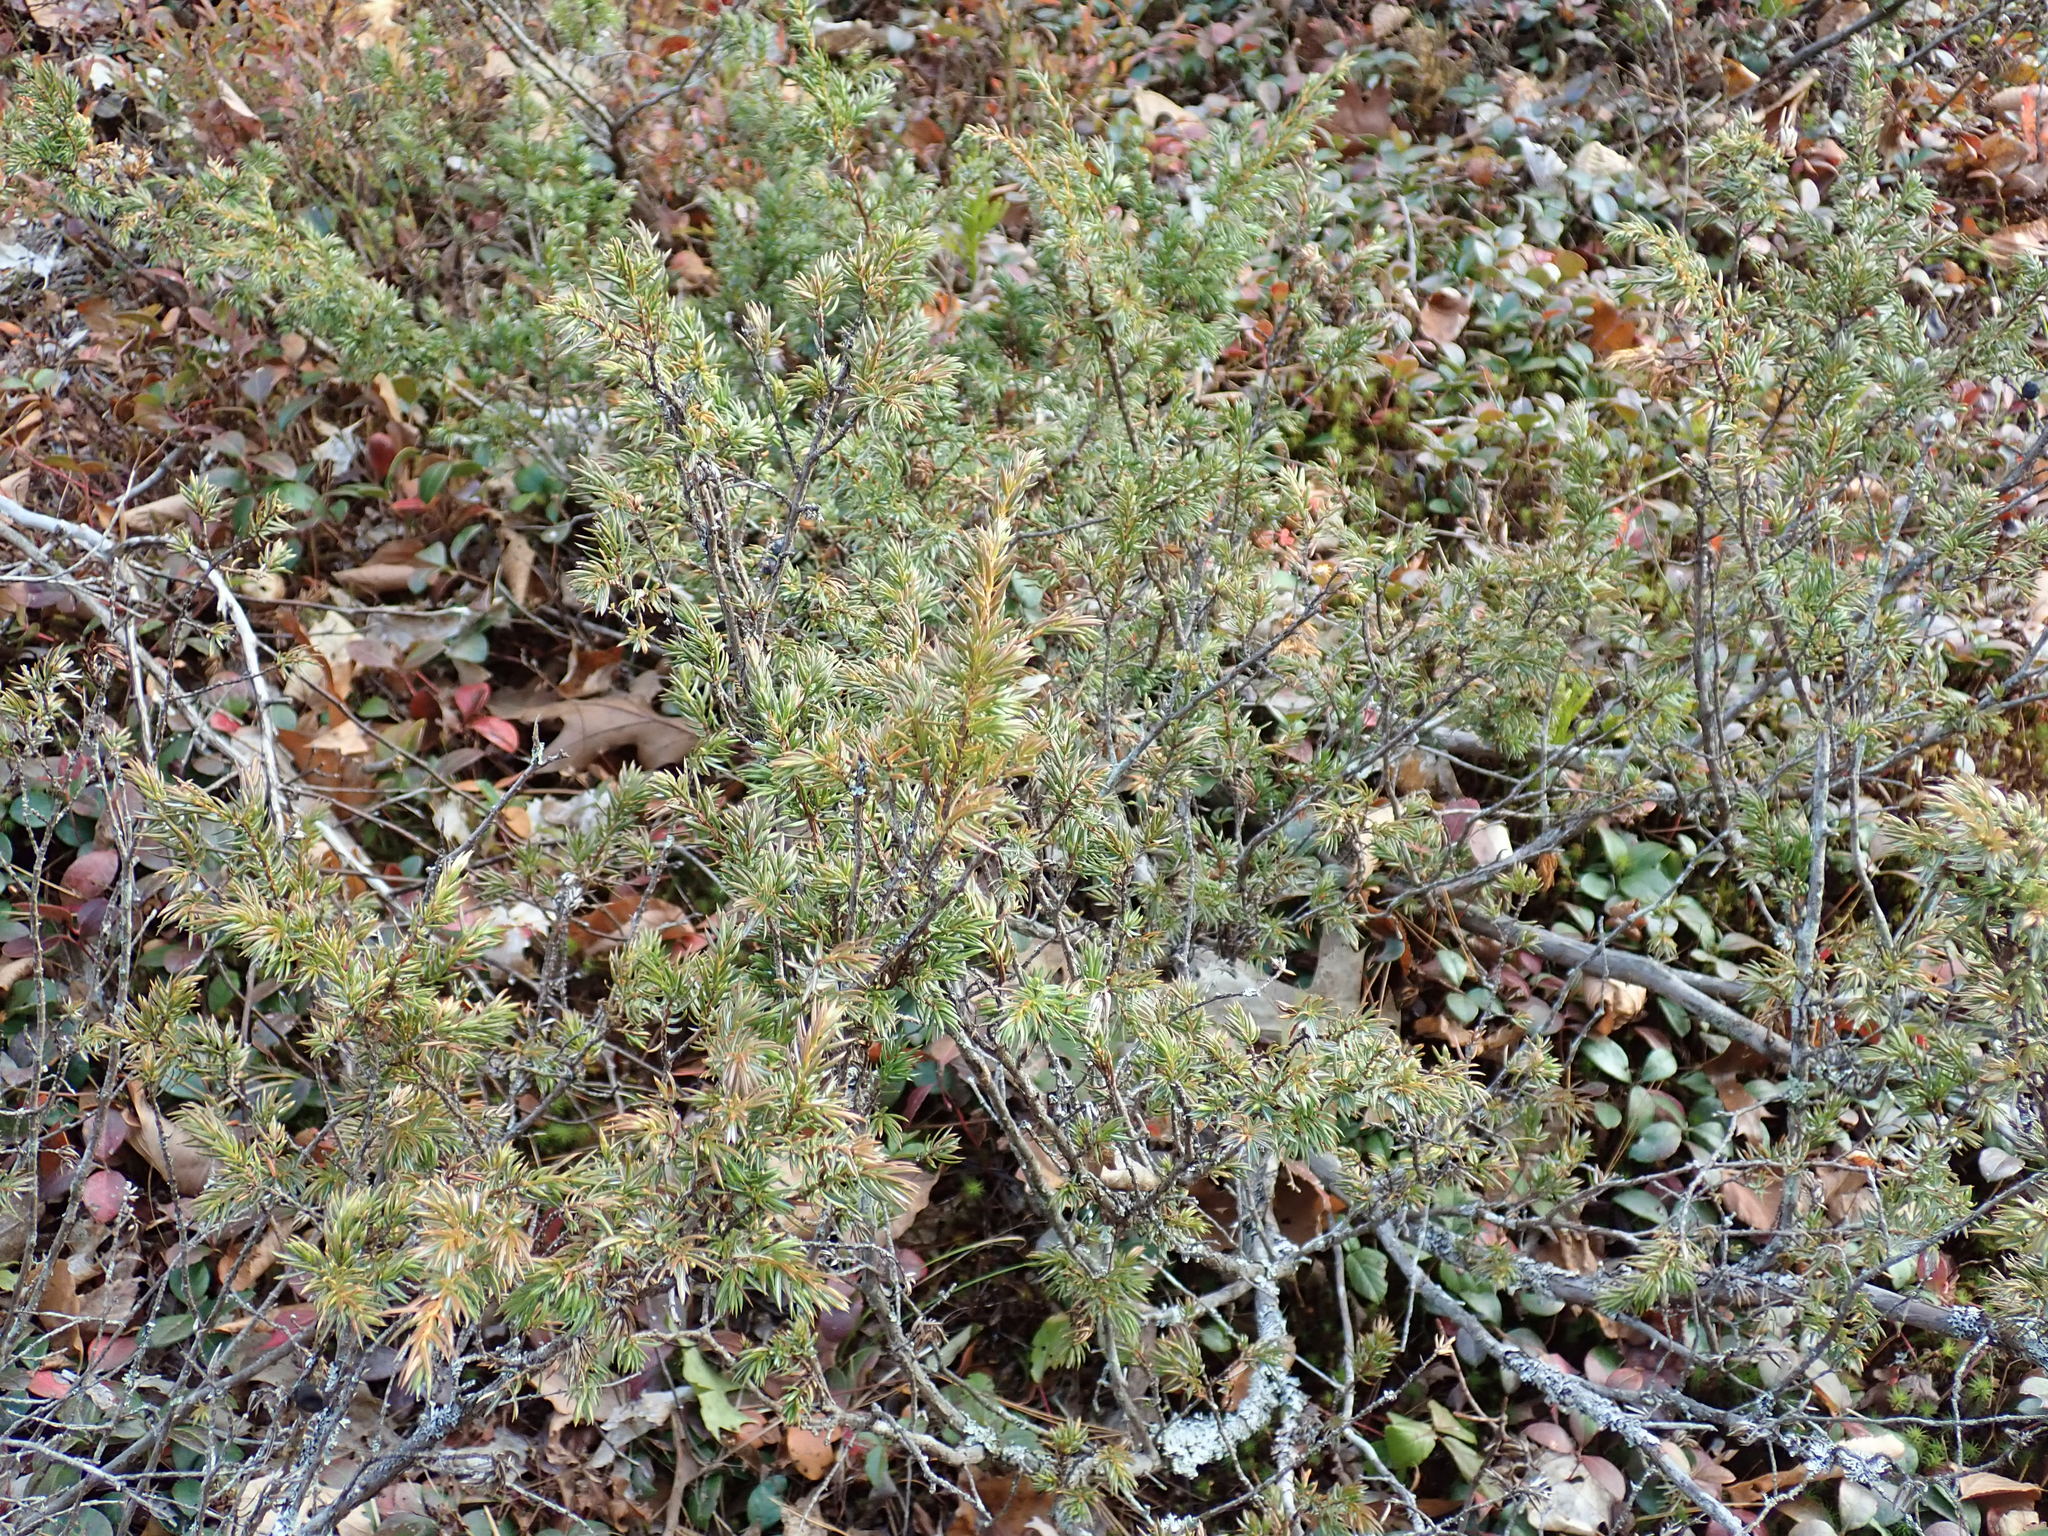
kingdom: Plantae
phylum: Tracheophyta
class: Pinopsida
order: Pinales
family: Cupressaceae
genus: Juniperus
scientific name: Juniperus communis
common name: Common juniper
